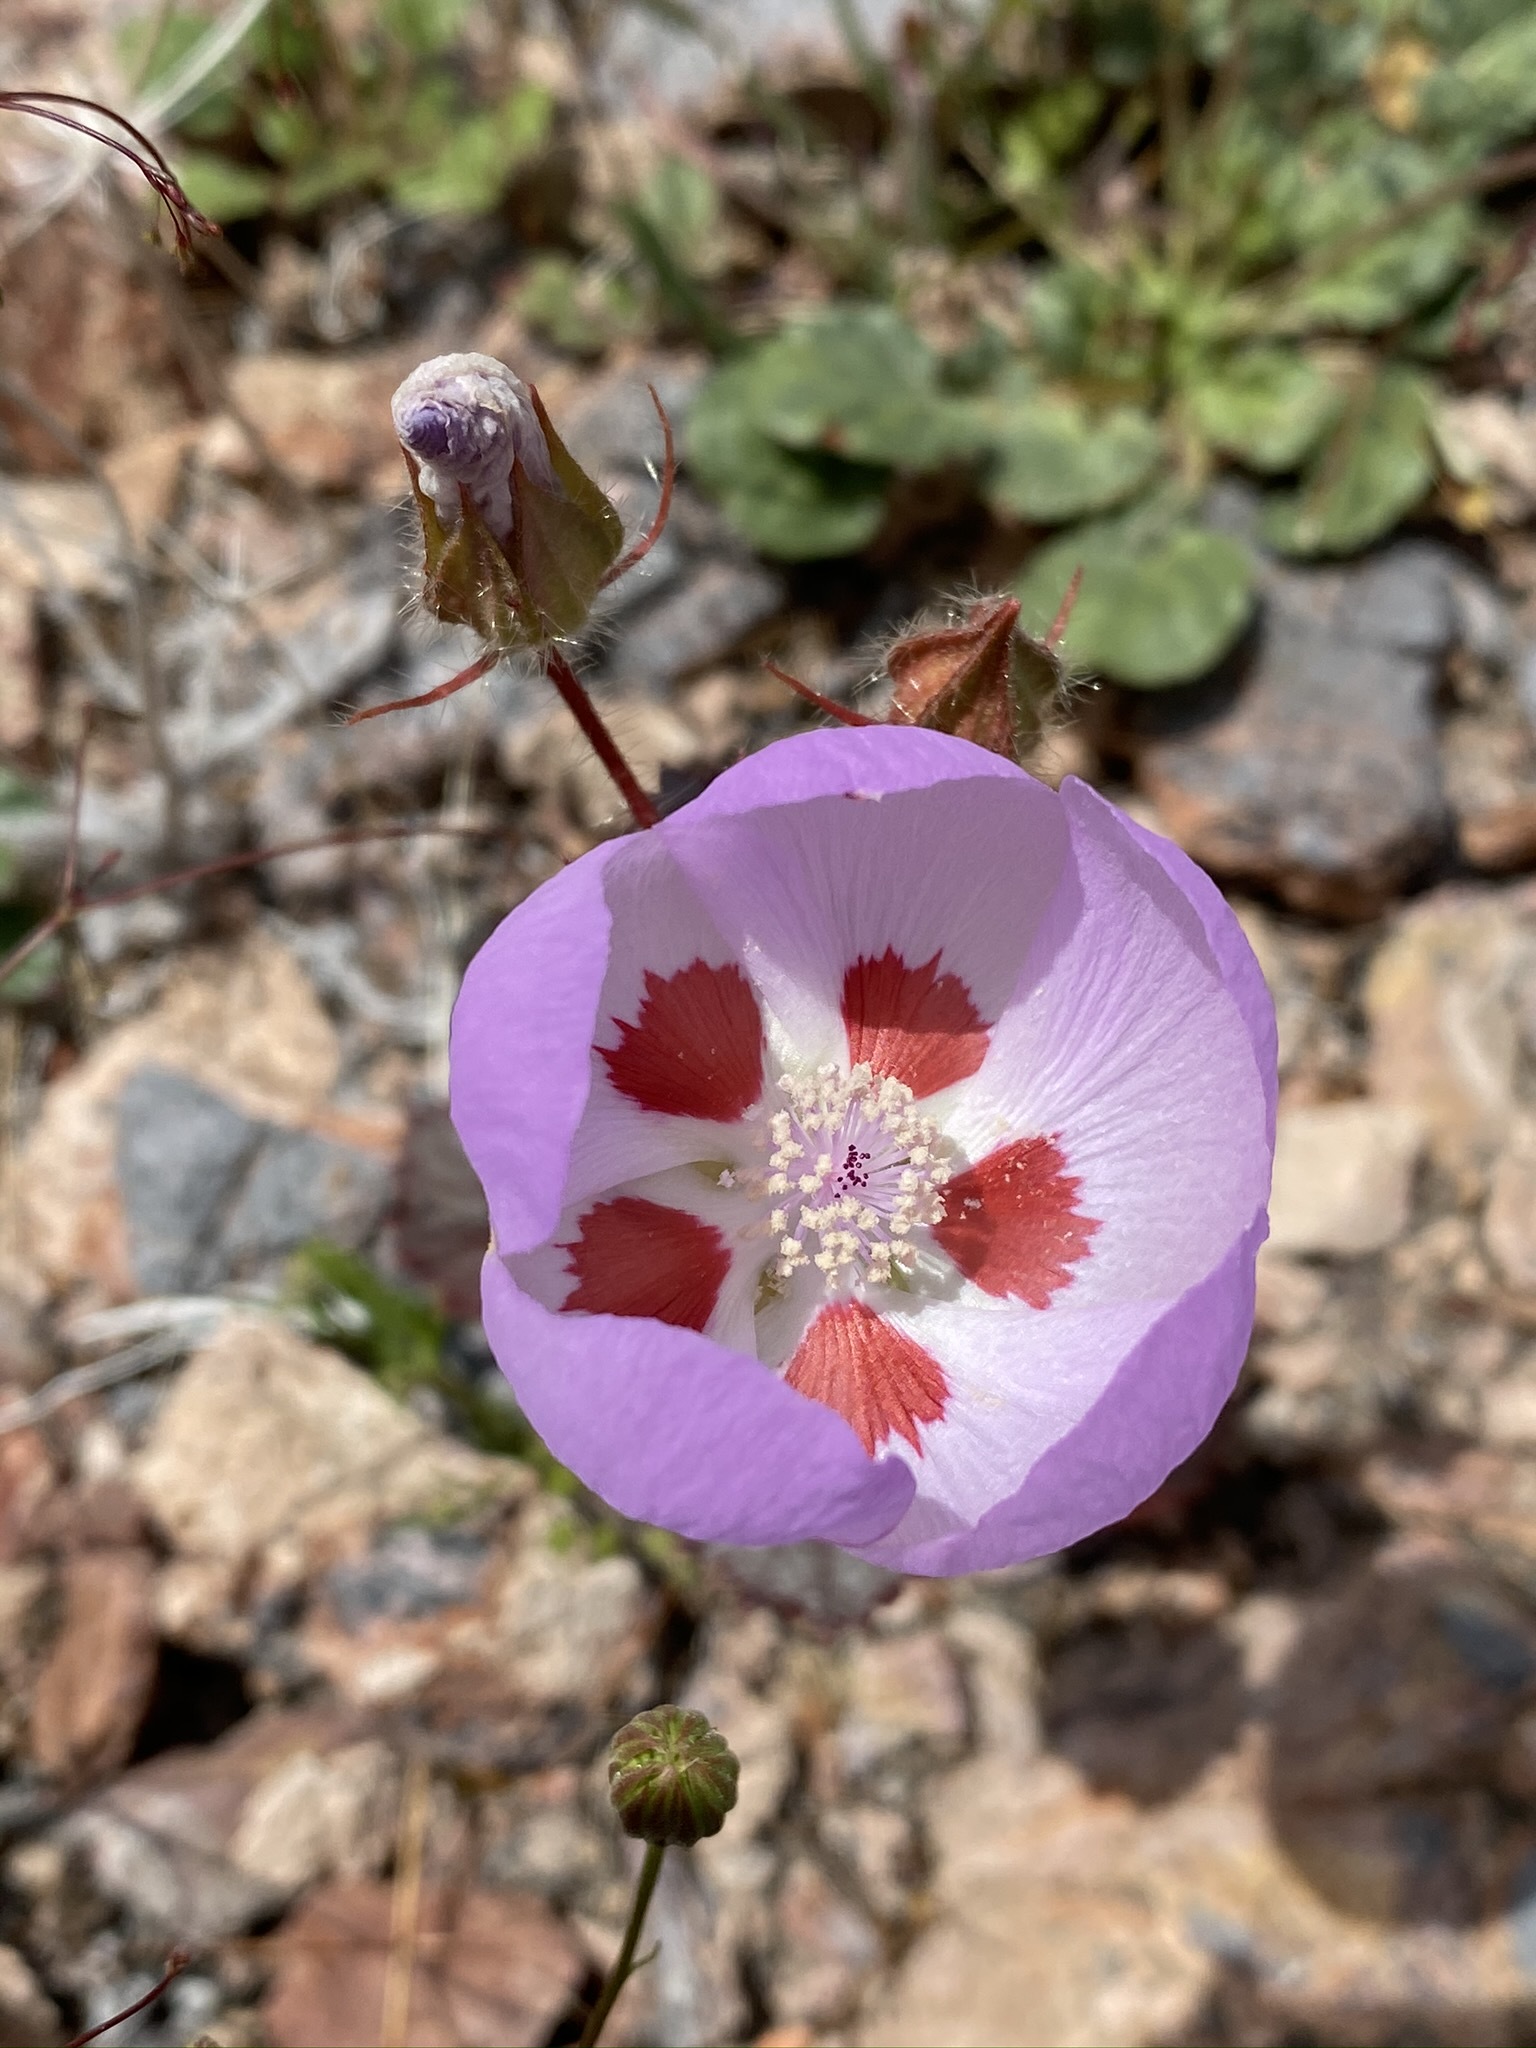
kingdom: Plantae
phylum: Tracheophyta
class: Magnoliopsida
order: Malvales
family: Malvaceae
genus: Eremalche
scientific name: Eremalche rotundifolia
